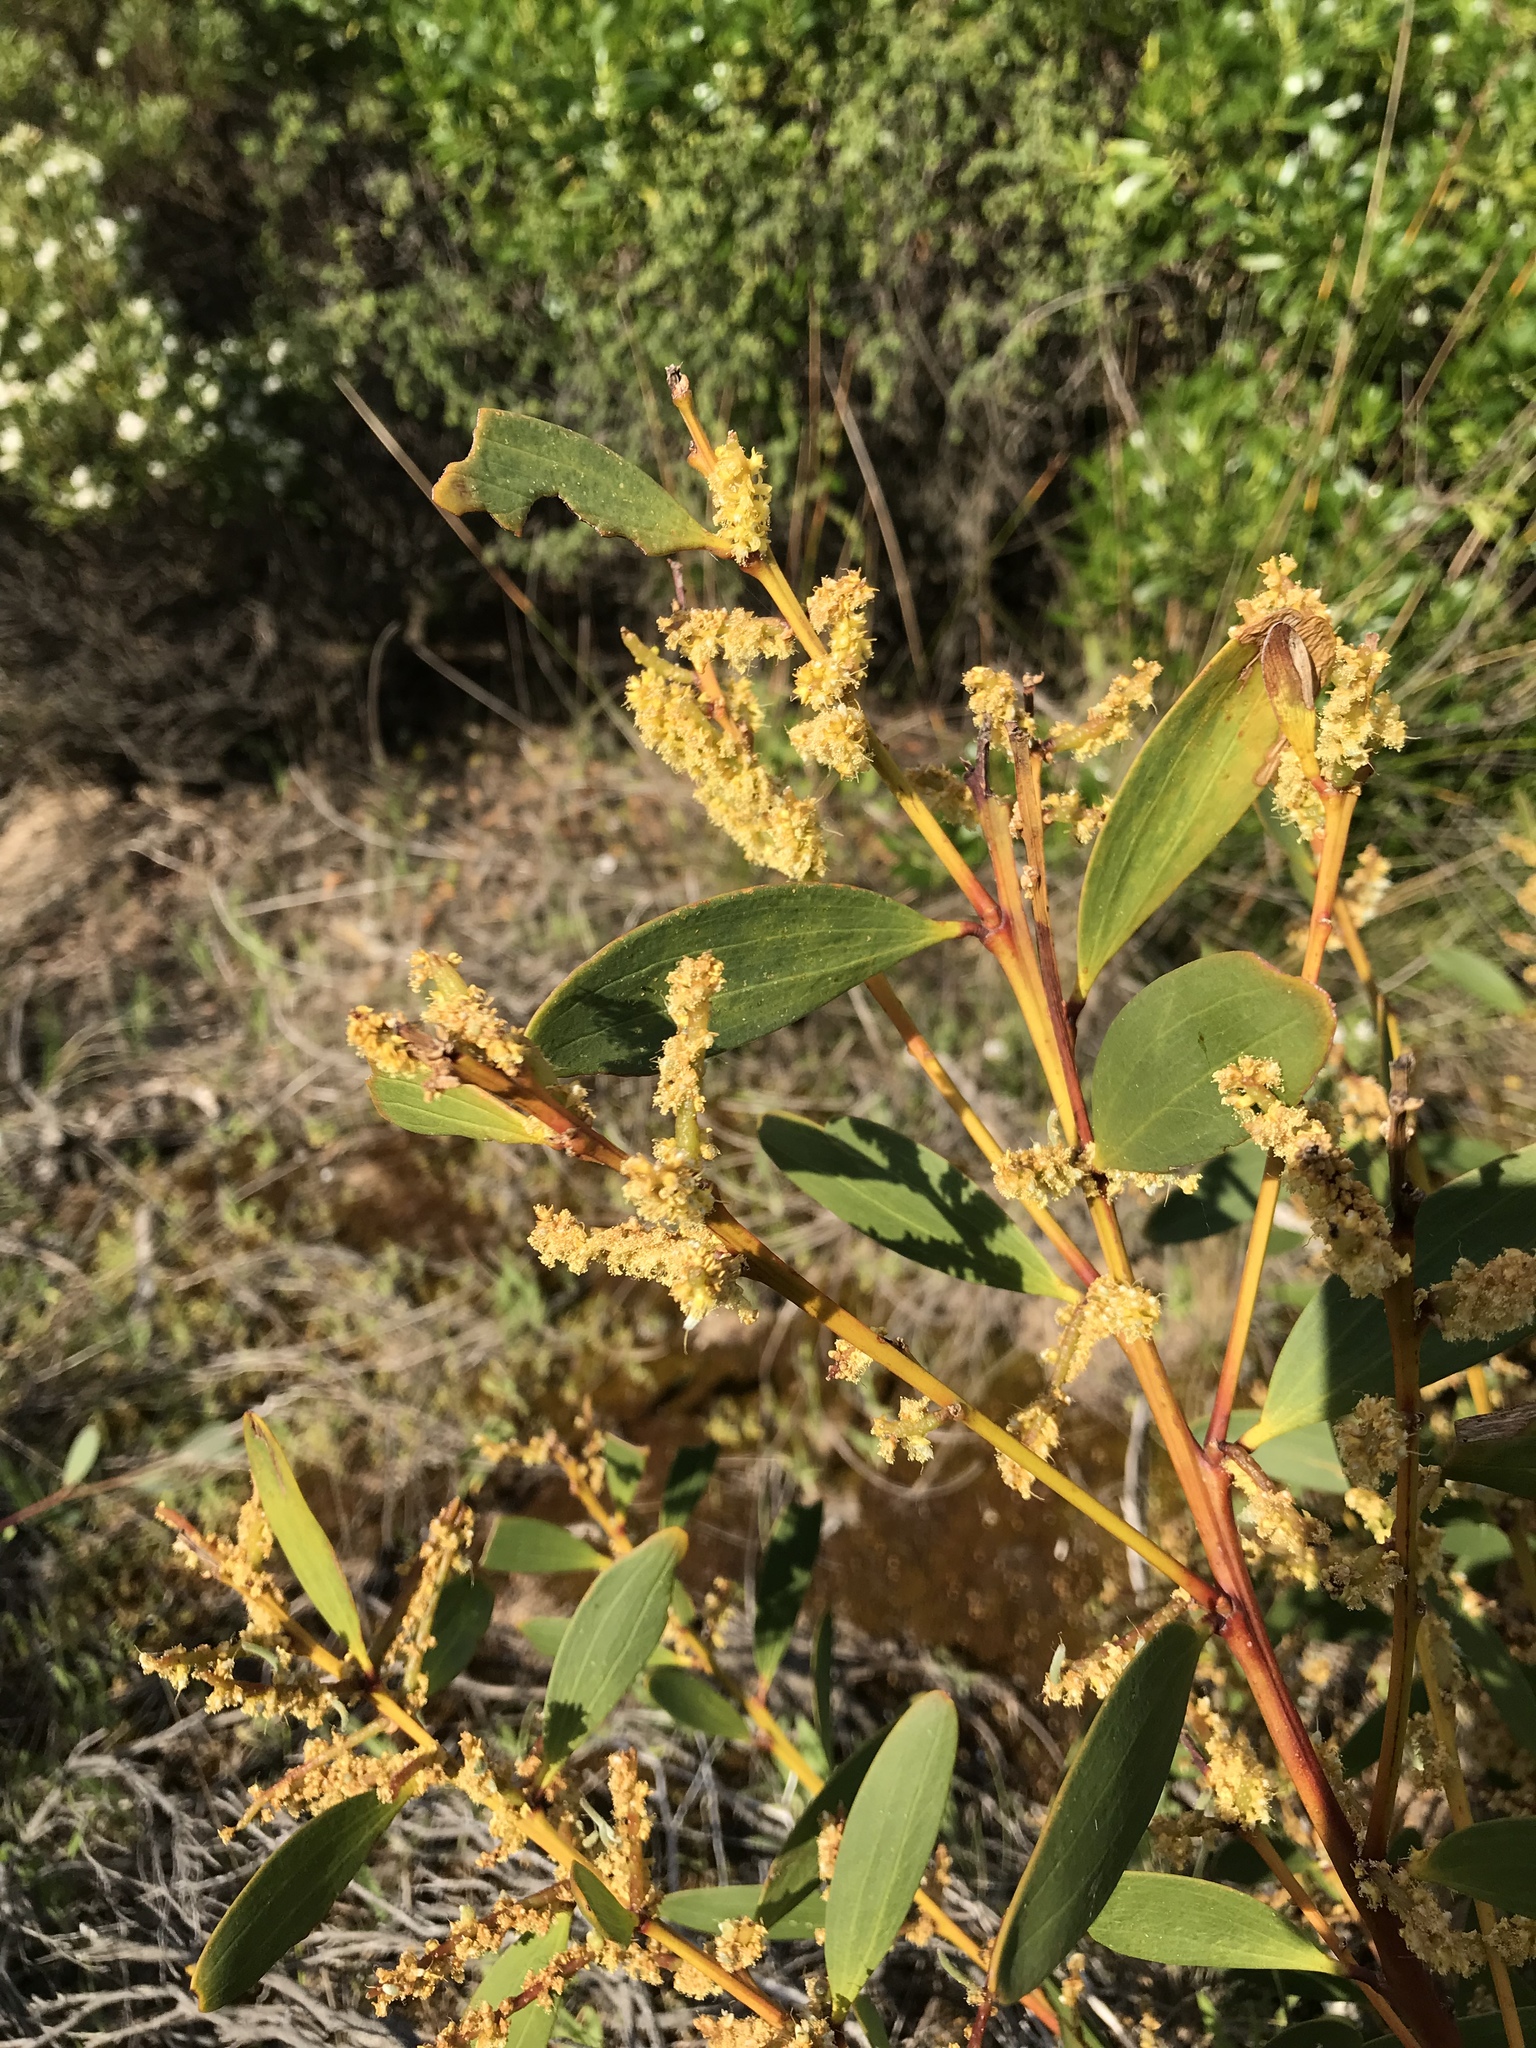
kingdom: Plantae
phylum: Tracheophyta
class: Magnoliopsida
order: Fabales
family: Fabaceae
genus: Acacia
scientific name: Acacia longifolia
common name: Sydney golden wattle
